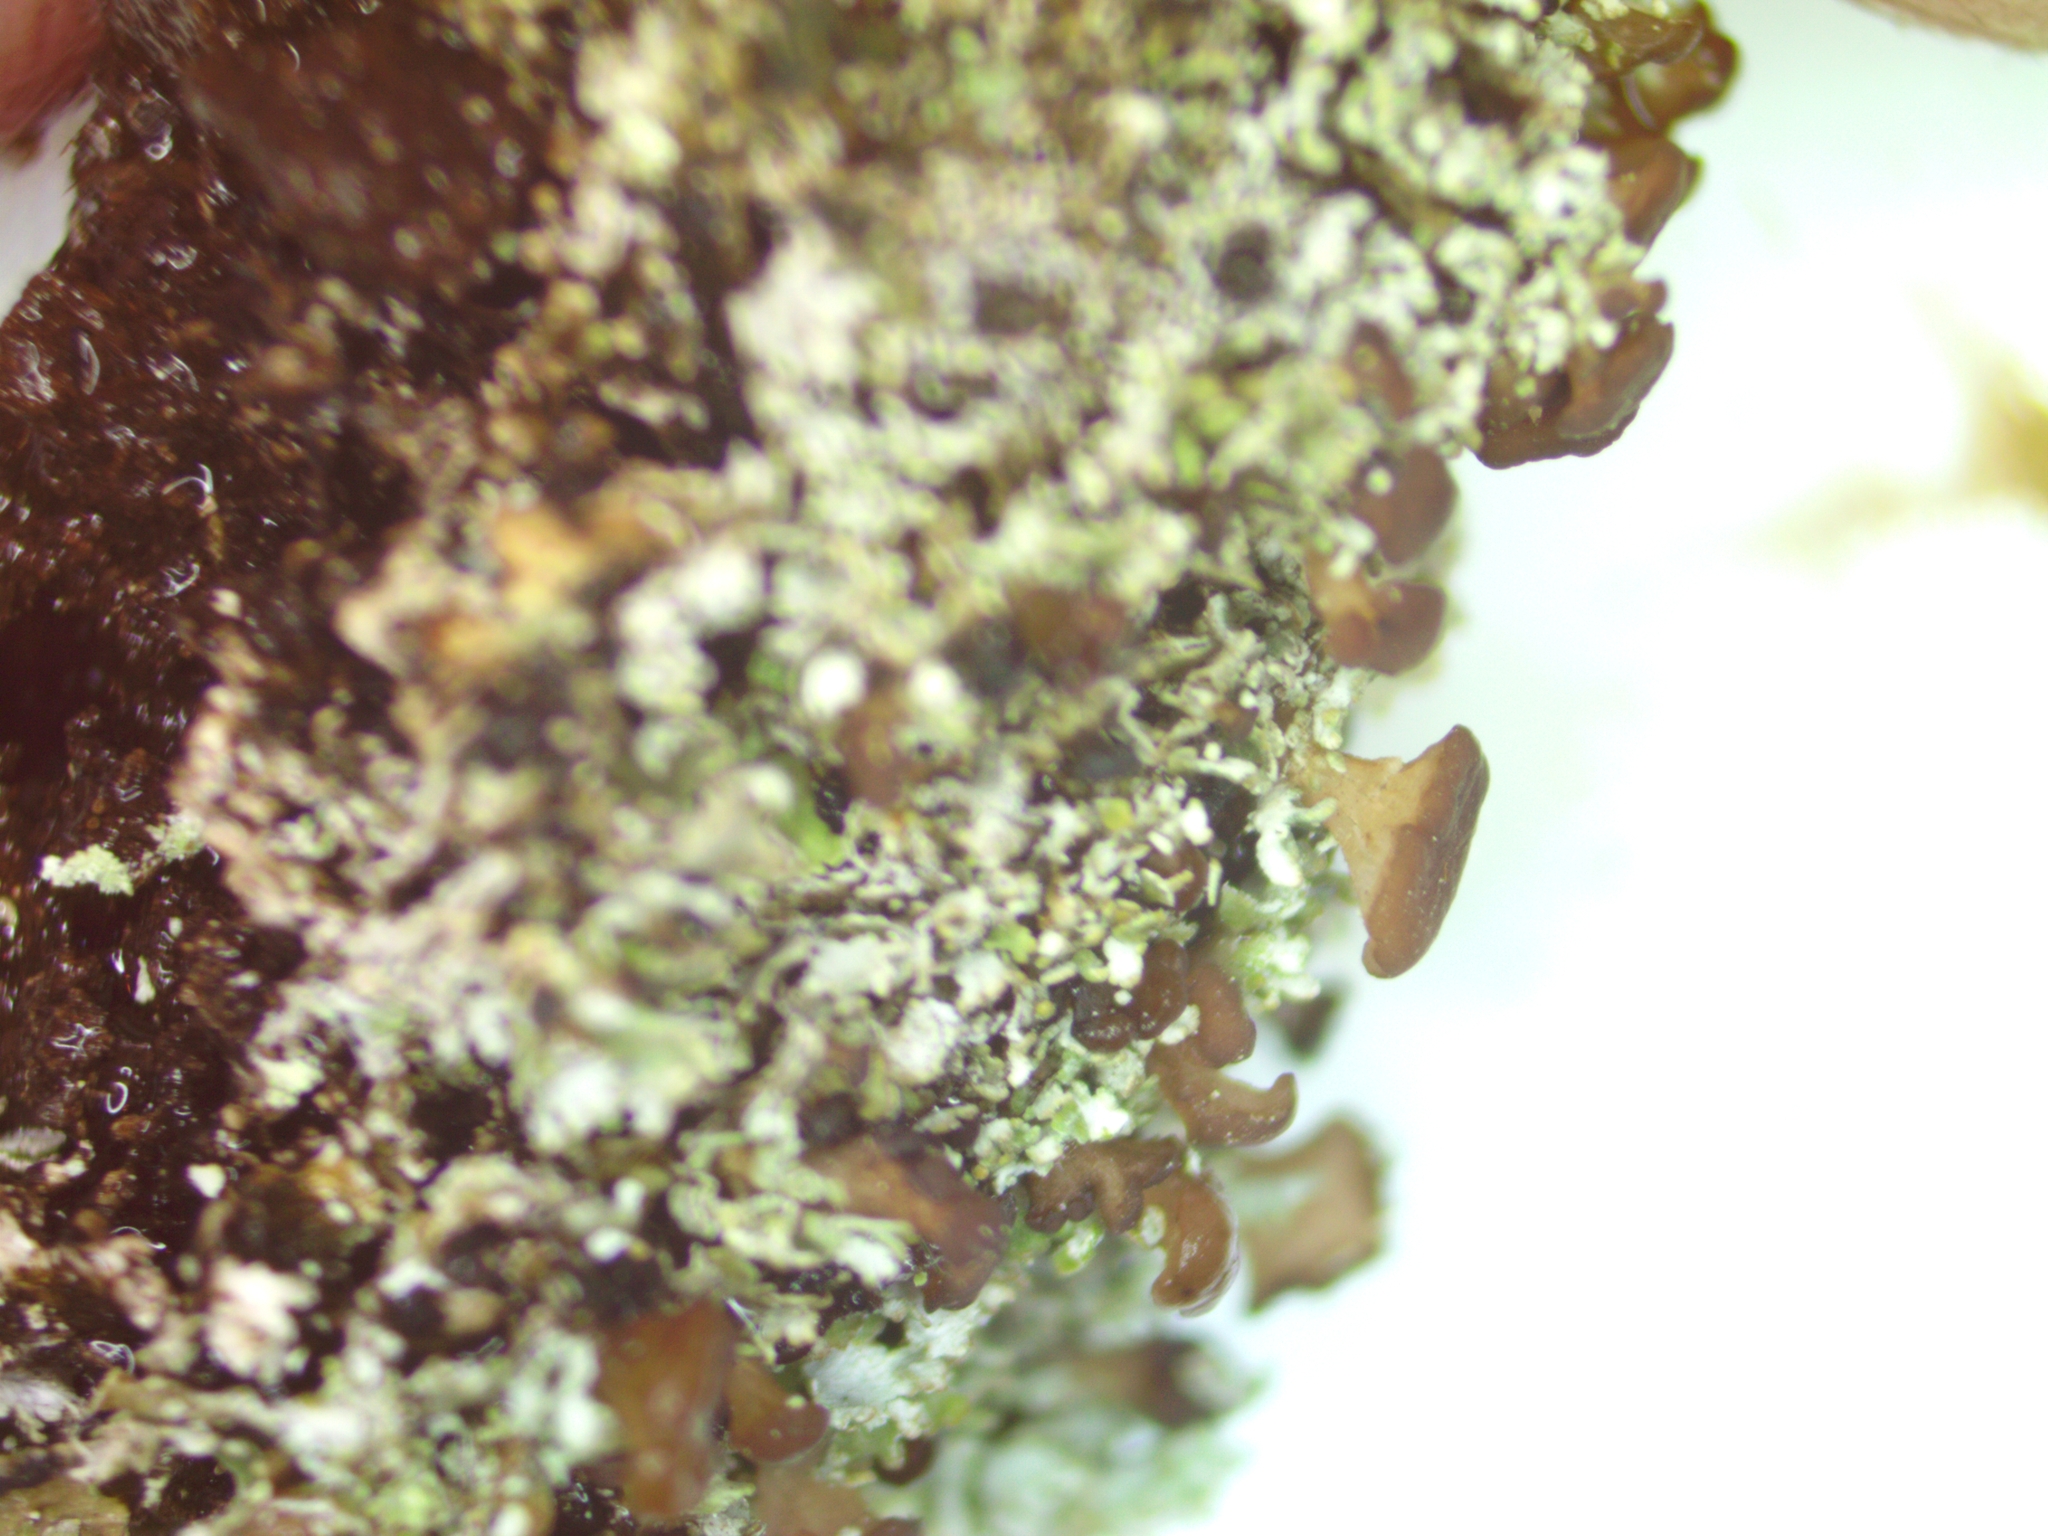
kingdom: Fungi
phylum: Ascomycota
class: Lecanoromycetes
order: Lecanorales
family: Cladoniaceae
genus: Cladonia
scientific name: Cladonia caespiticia
